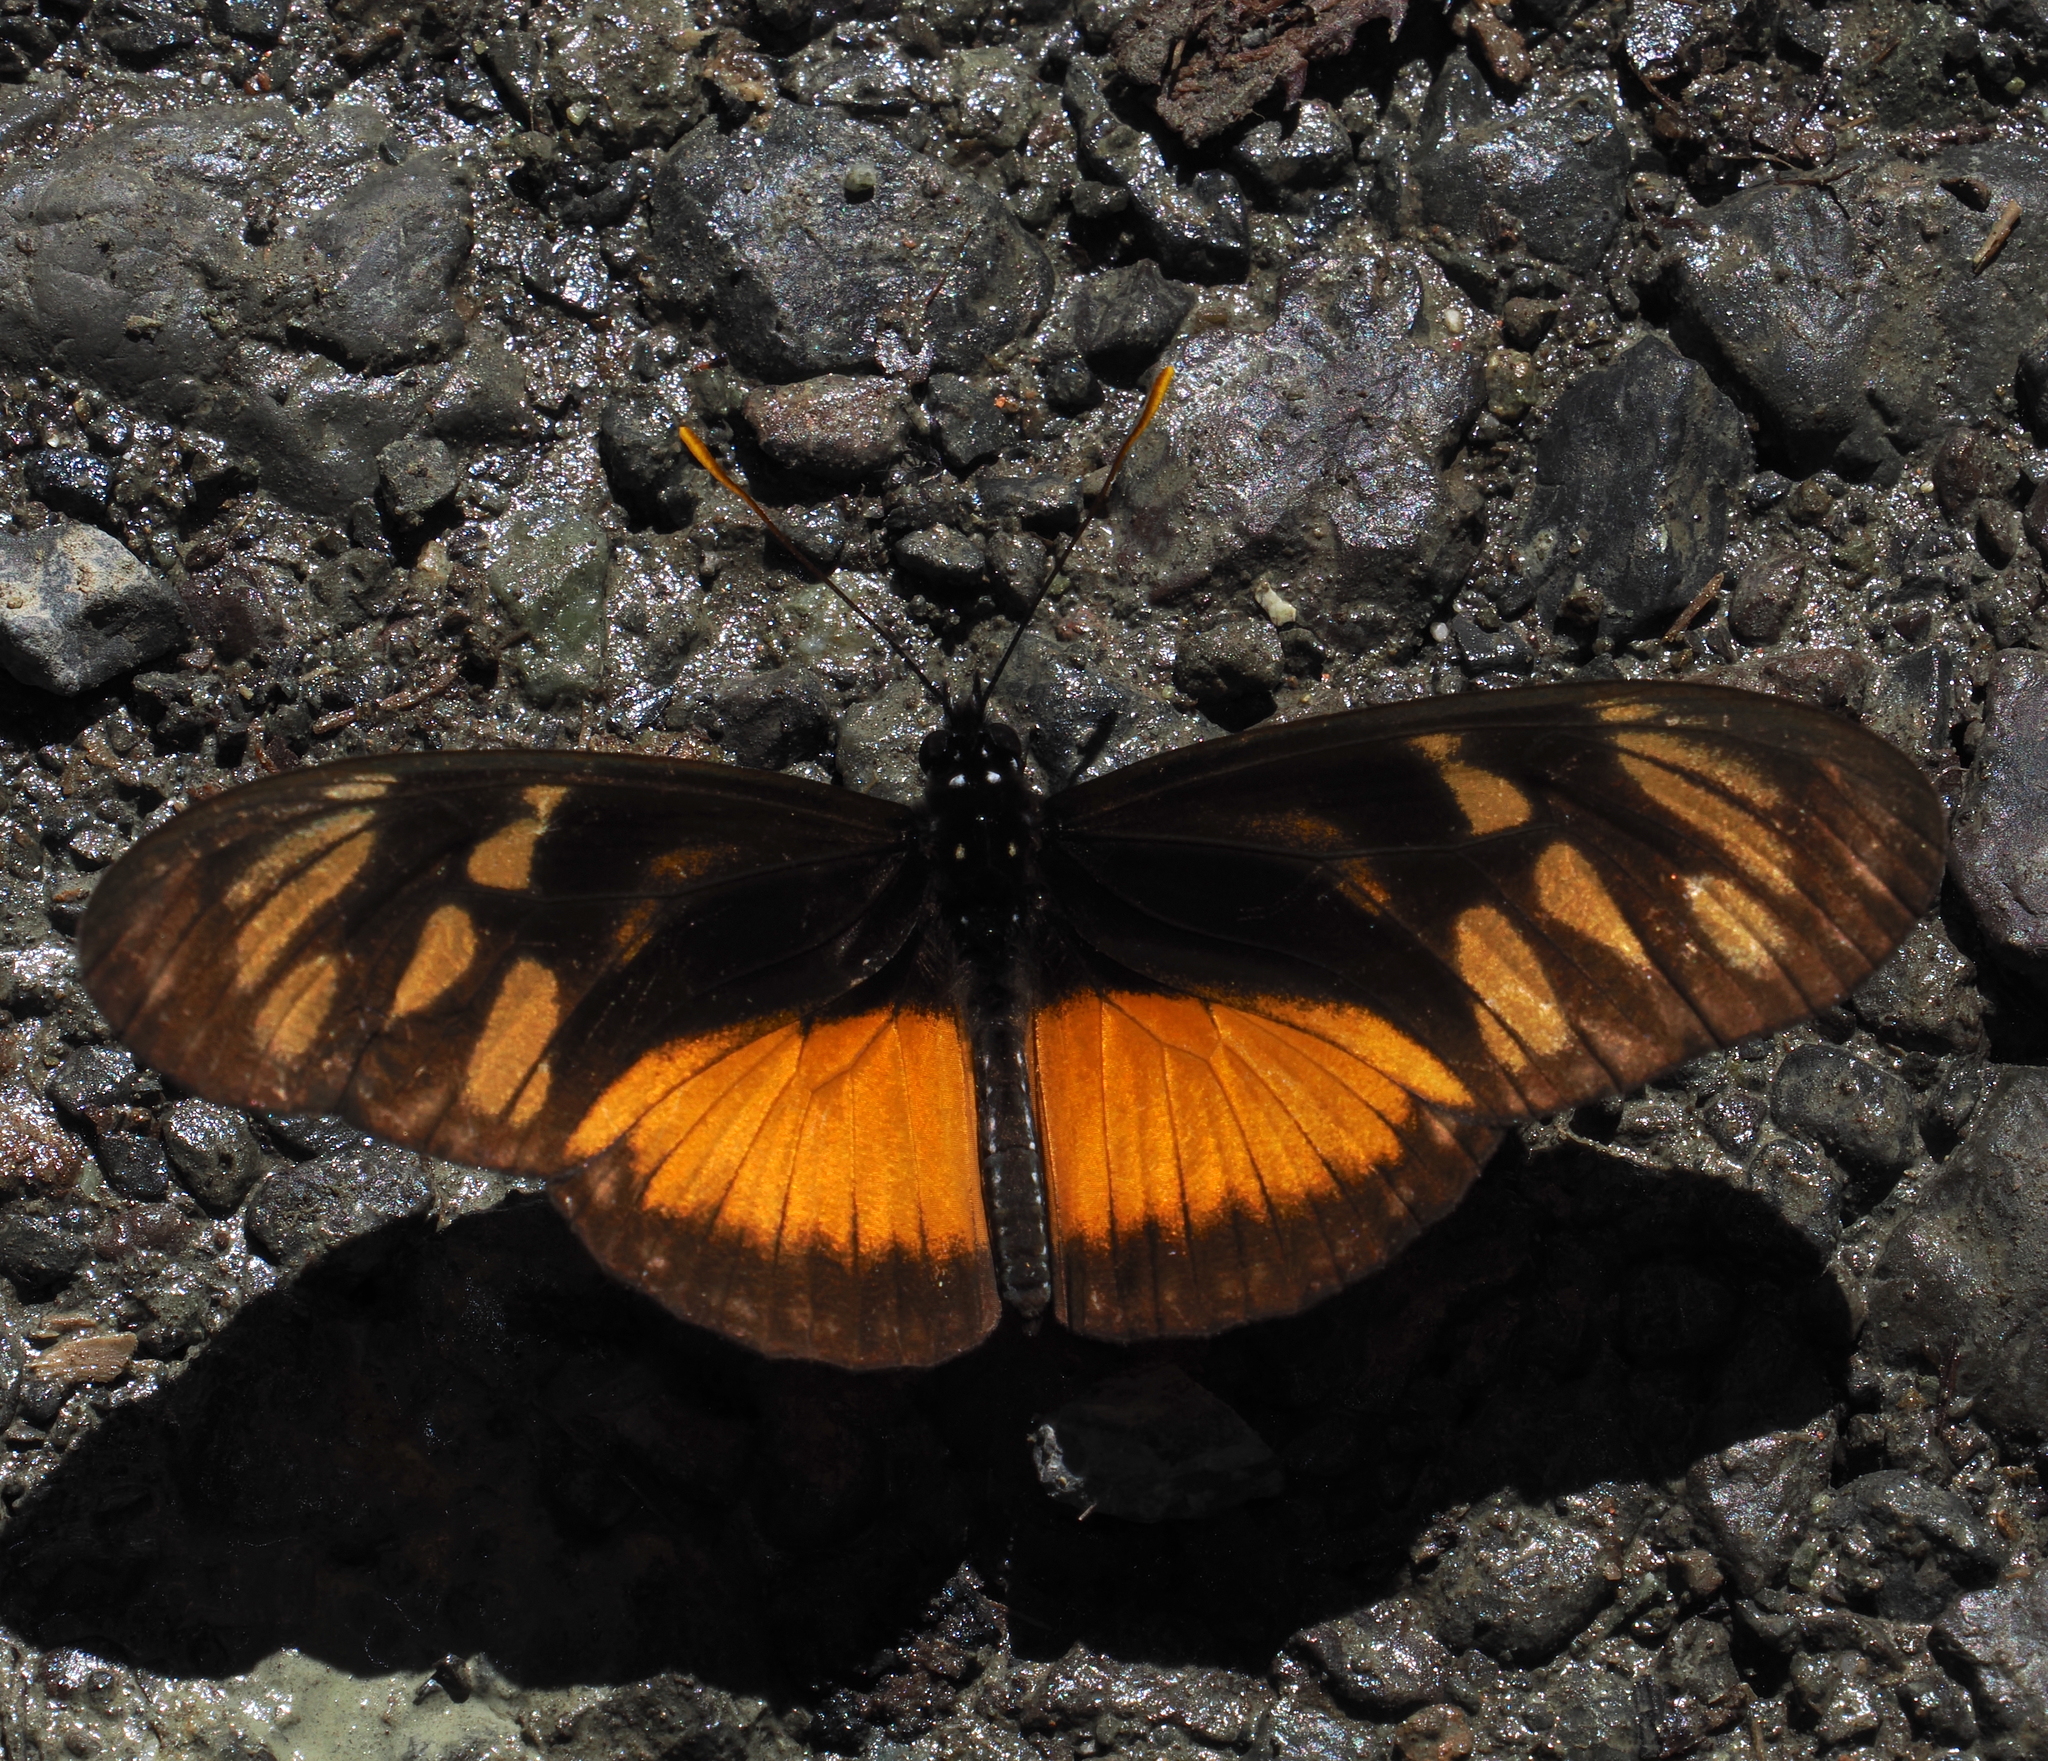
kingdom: Animalia
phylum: Arthropoda
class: Insecta
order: Lepidoptera
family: Nymphalidae
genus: Eueides
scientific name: Eueides procula
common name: Nonpassionate heliconian
